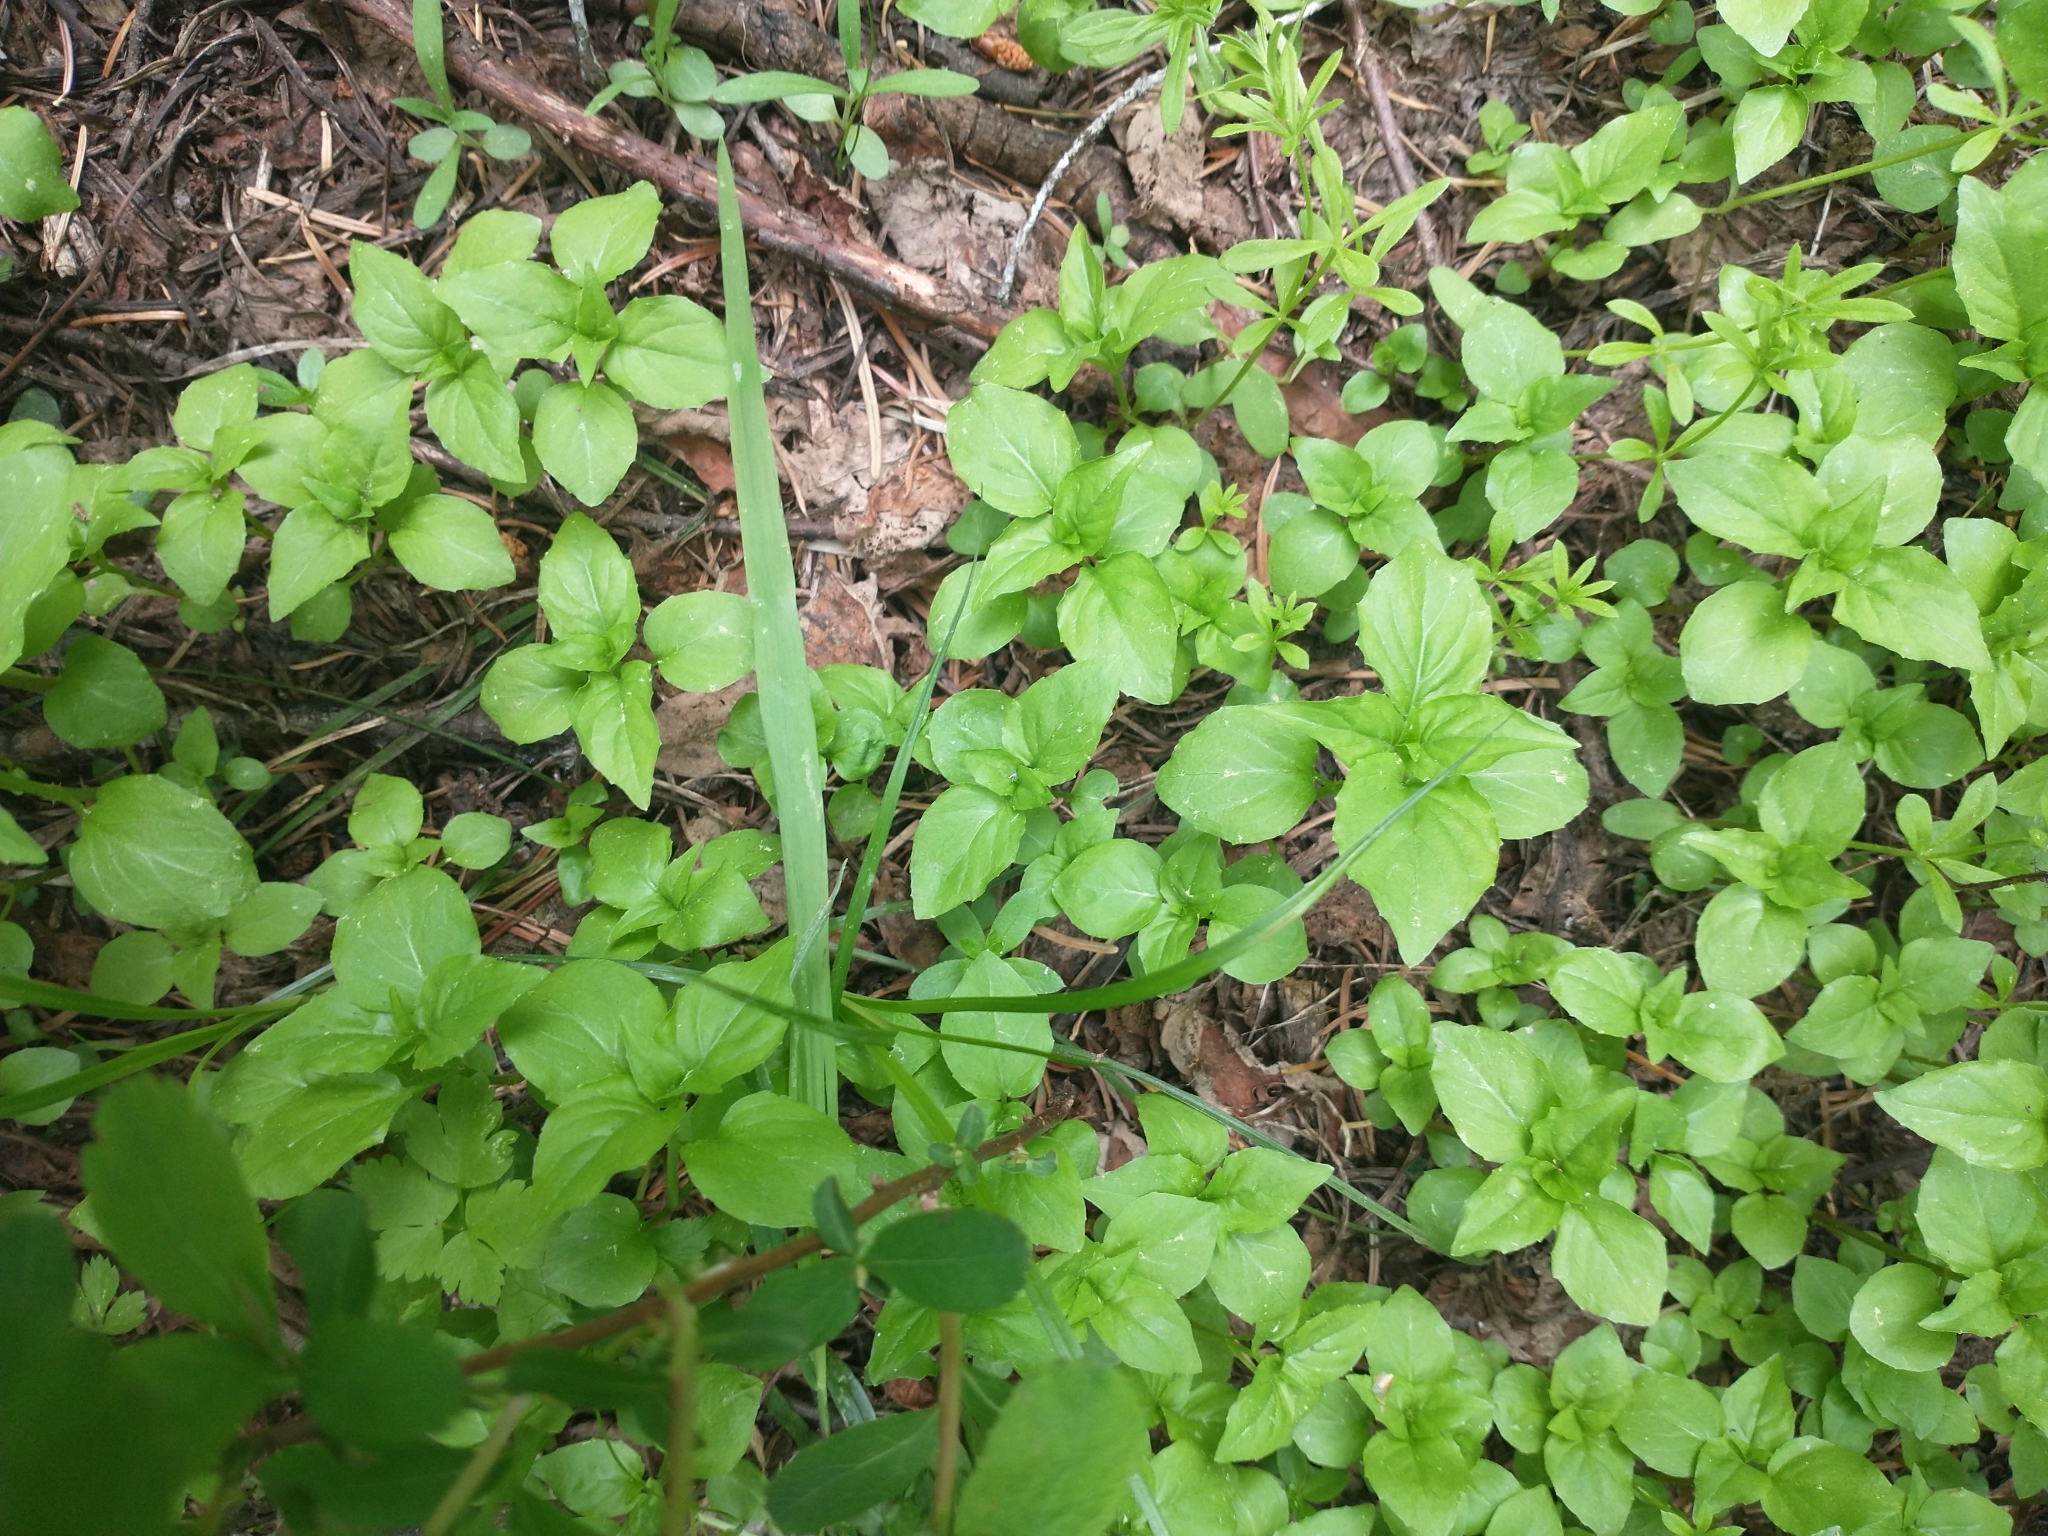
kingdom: Plantae
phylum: Tracheophyta
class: Magnoliopsida
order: Myrtales
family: Onagraceae
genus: Circaea
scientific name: Circaea alpina
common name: Alpine enchanter's-nightshade
